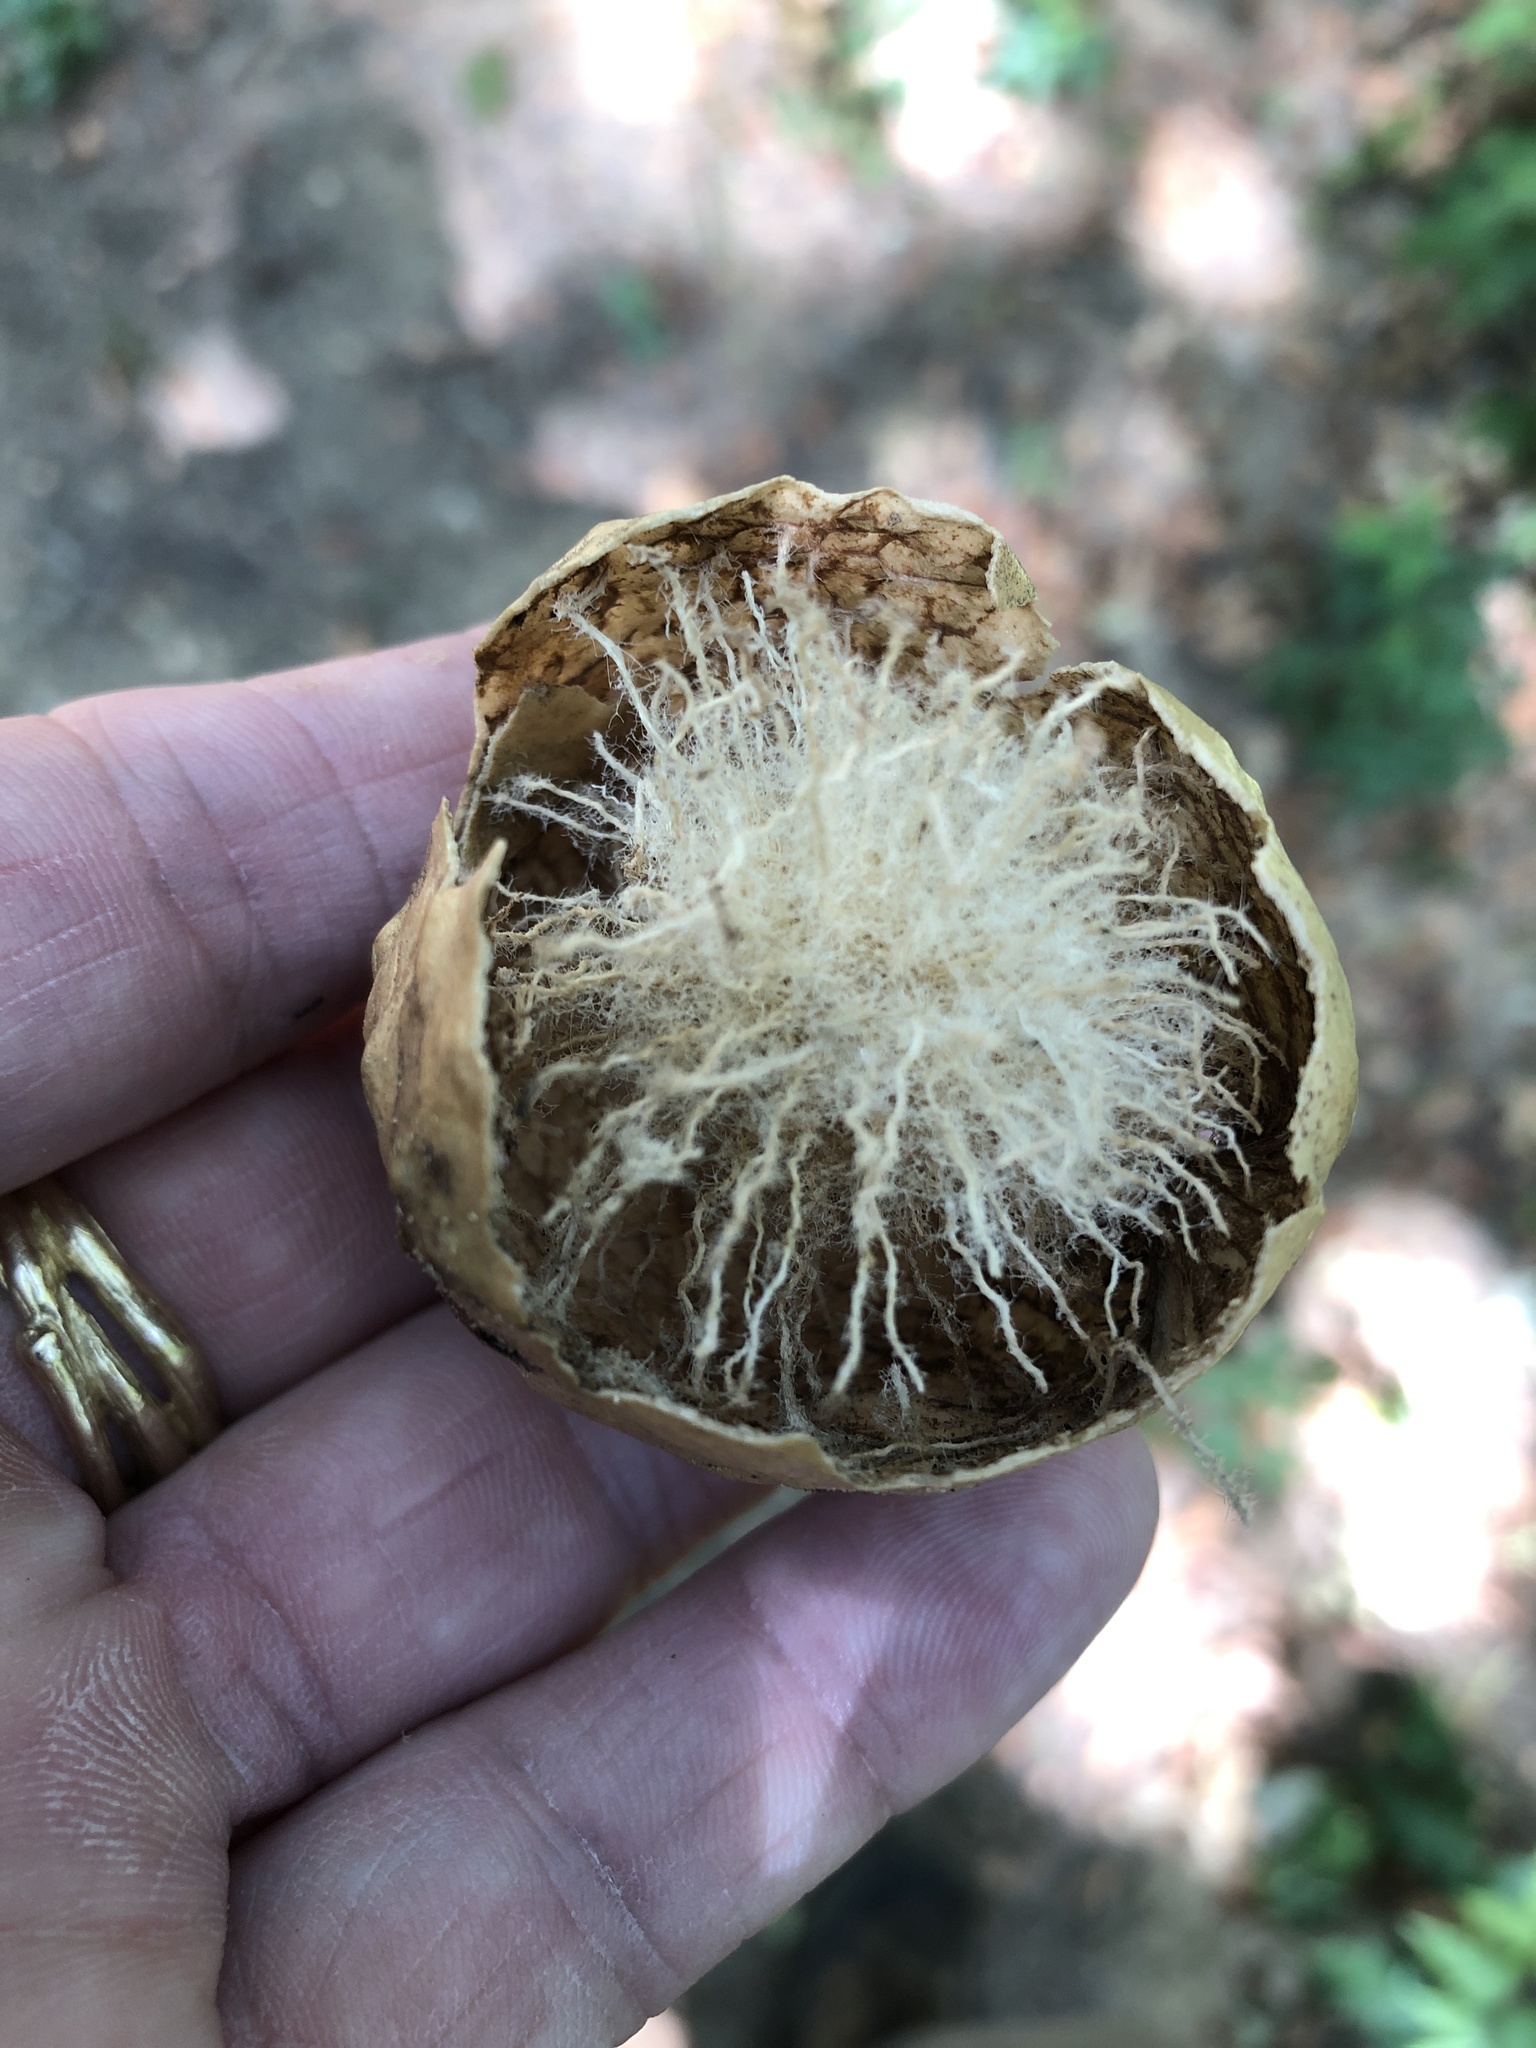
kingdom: Animalia
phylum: Arthropoda
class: Insecta
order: Hymenoptera
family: Cynipidae
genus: Amphibolips
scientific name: Amphibolips
